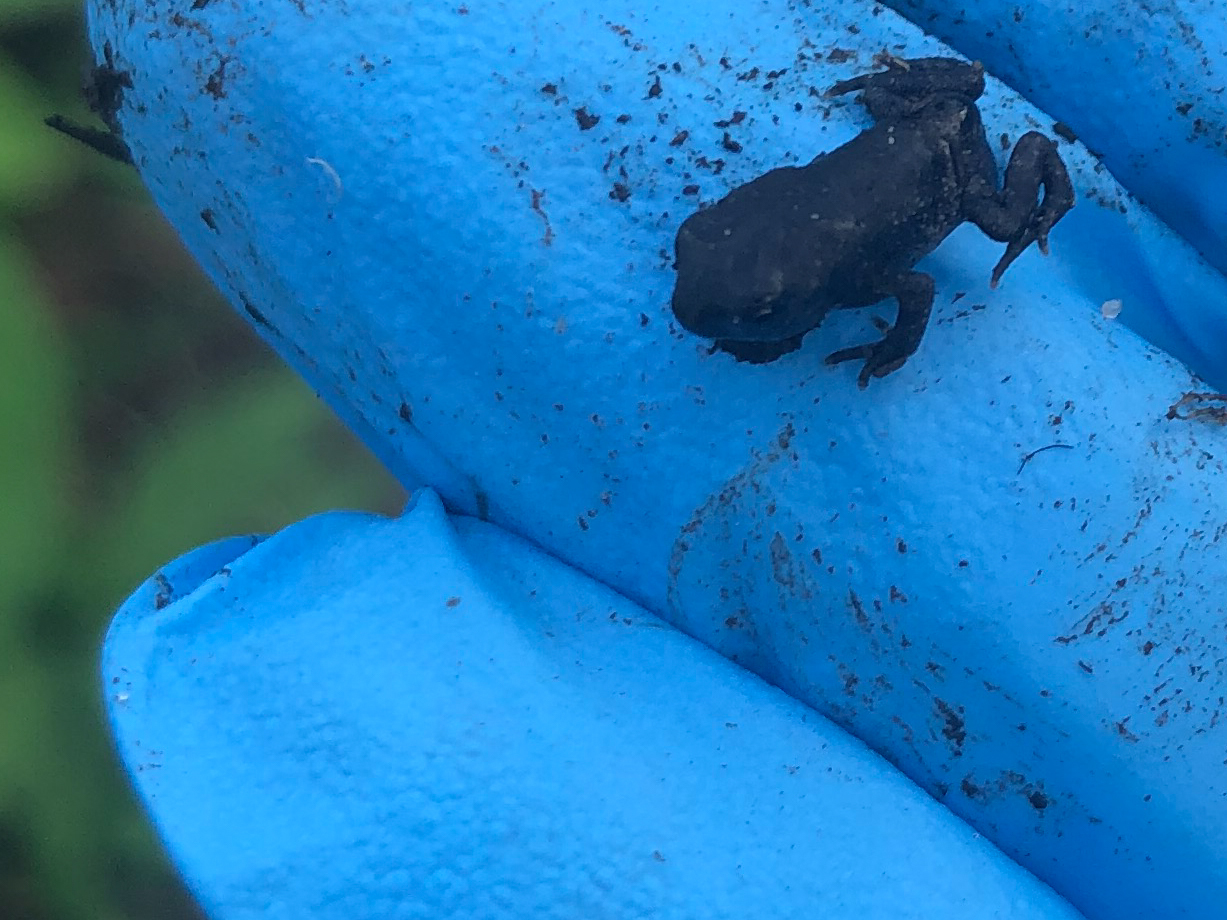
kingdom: Animalia
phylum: Chordata
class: Amphibia
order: Anura
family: Bufonidae
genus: Anaxyrus
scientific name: Anaxyrus americanus
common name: American toad
